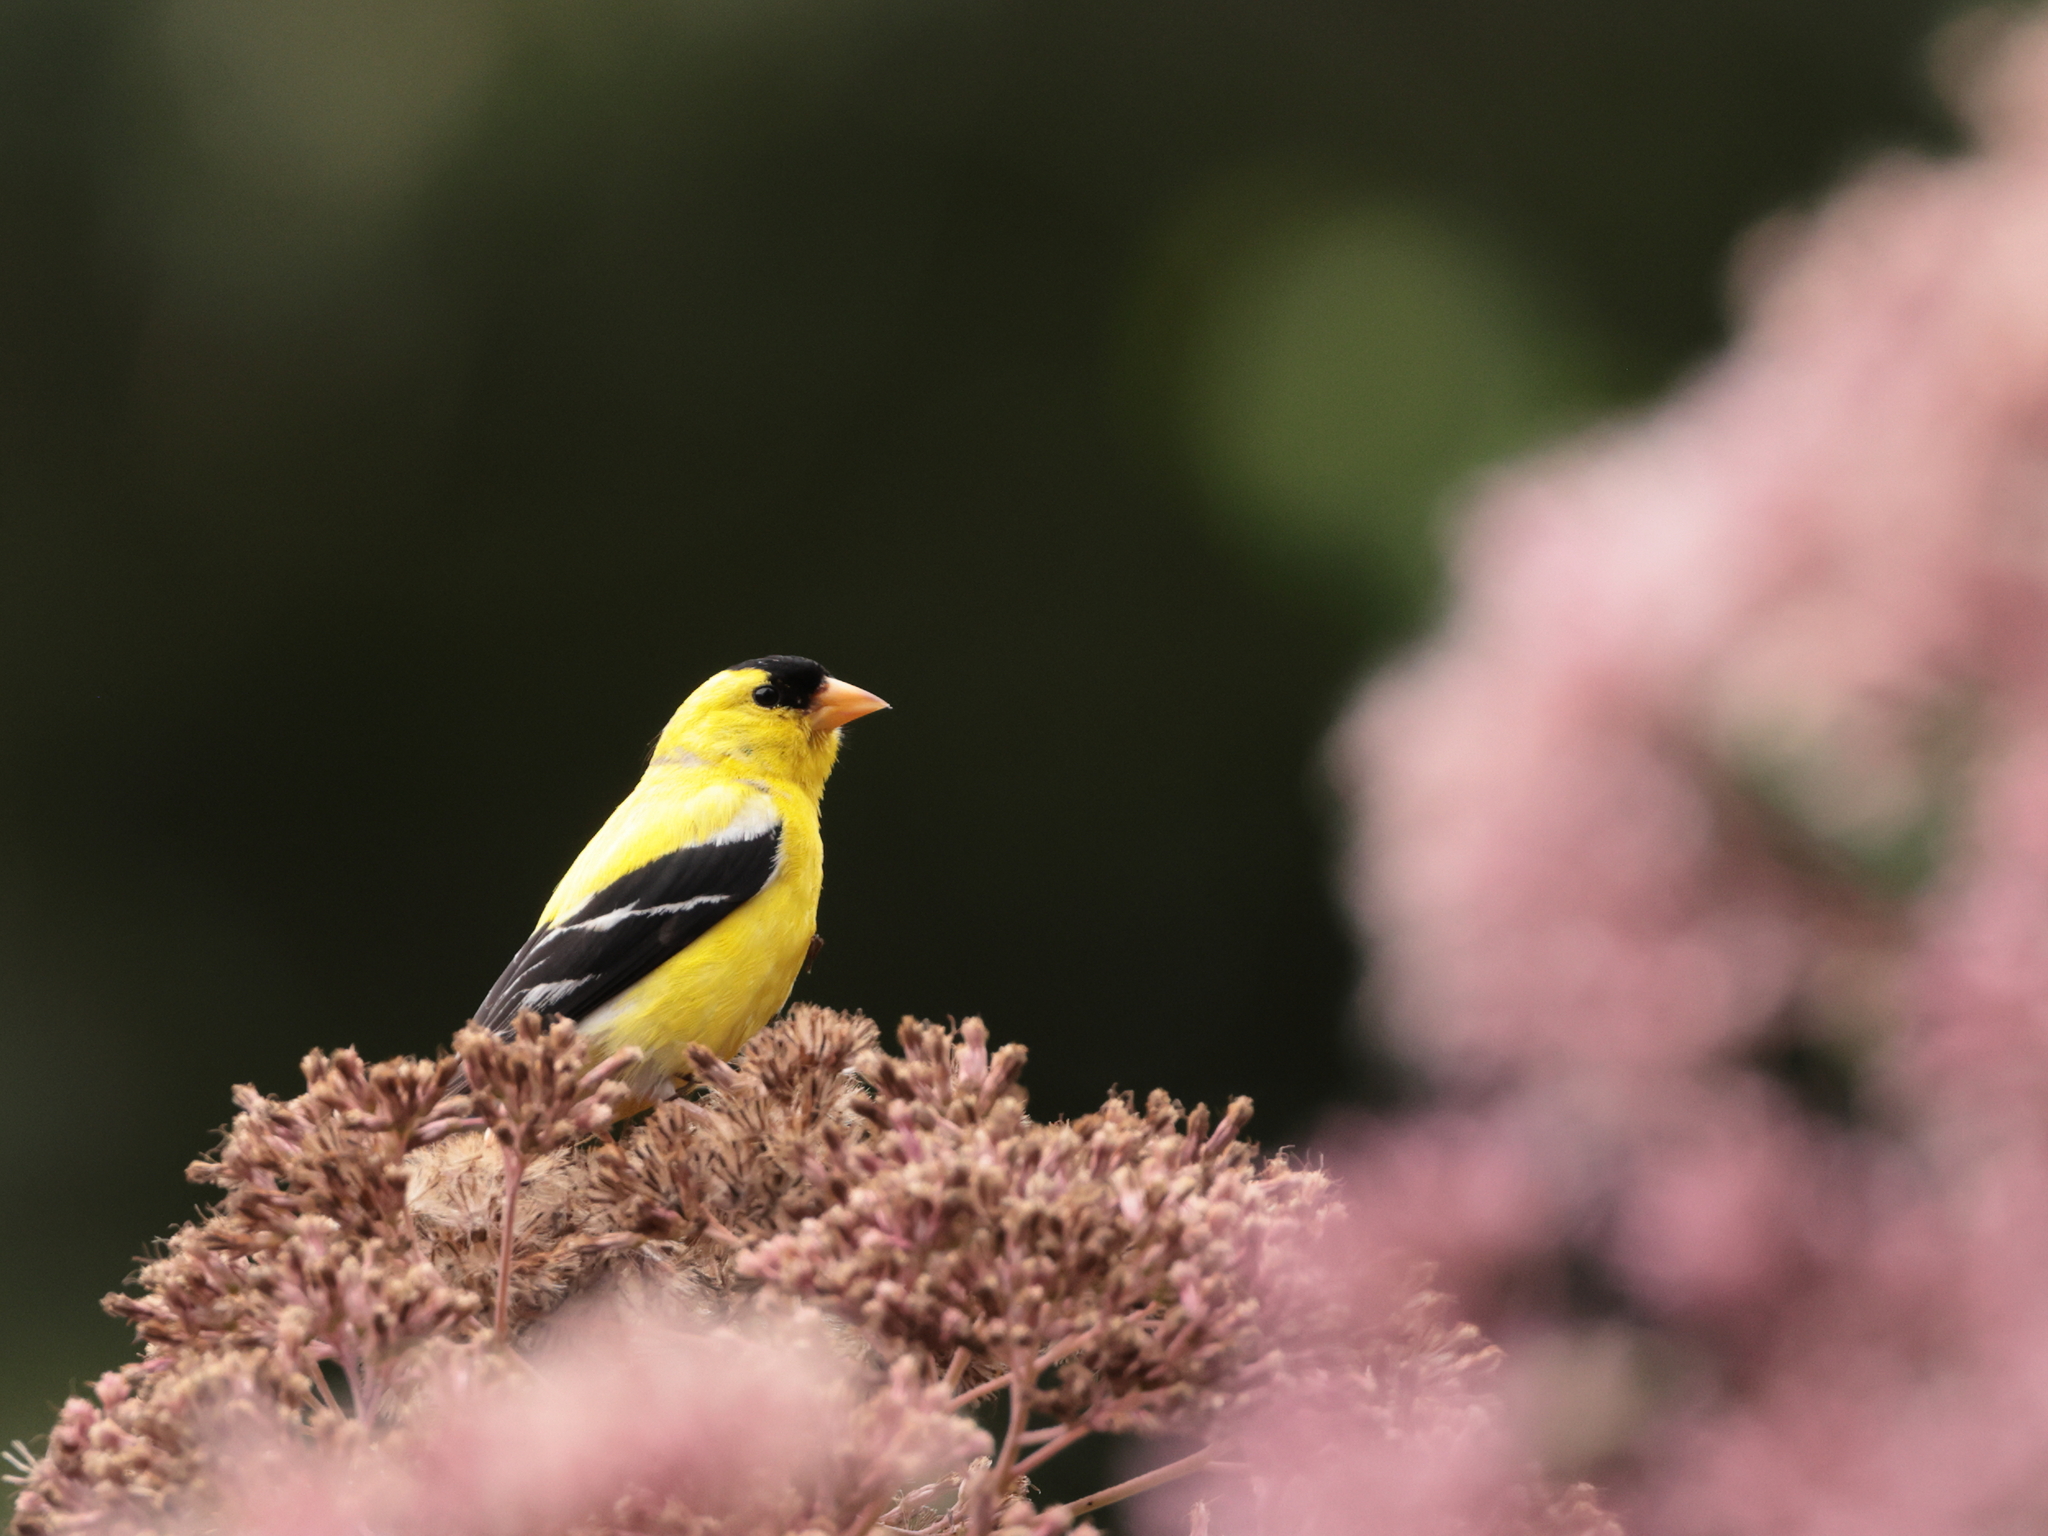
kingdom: Animalia
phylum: Chordata
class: Aves
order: Passeriformes
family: Fringillidae
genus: Spinus
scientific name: Spinus tristis
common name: American goldfinch
